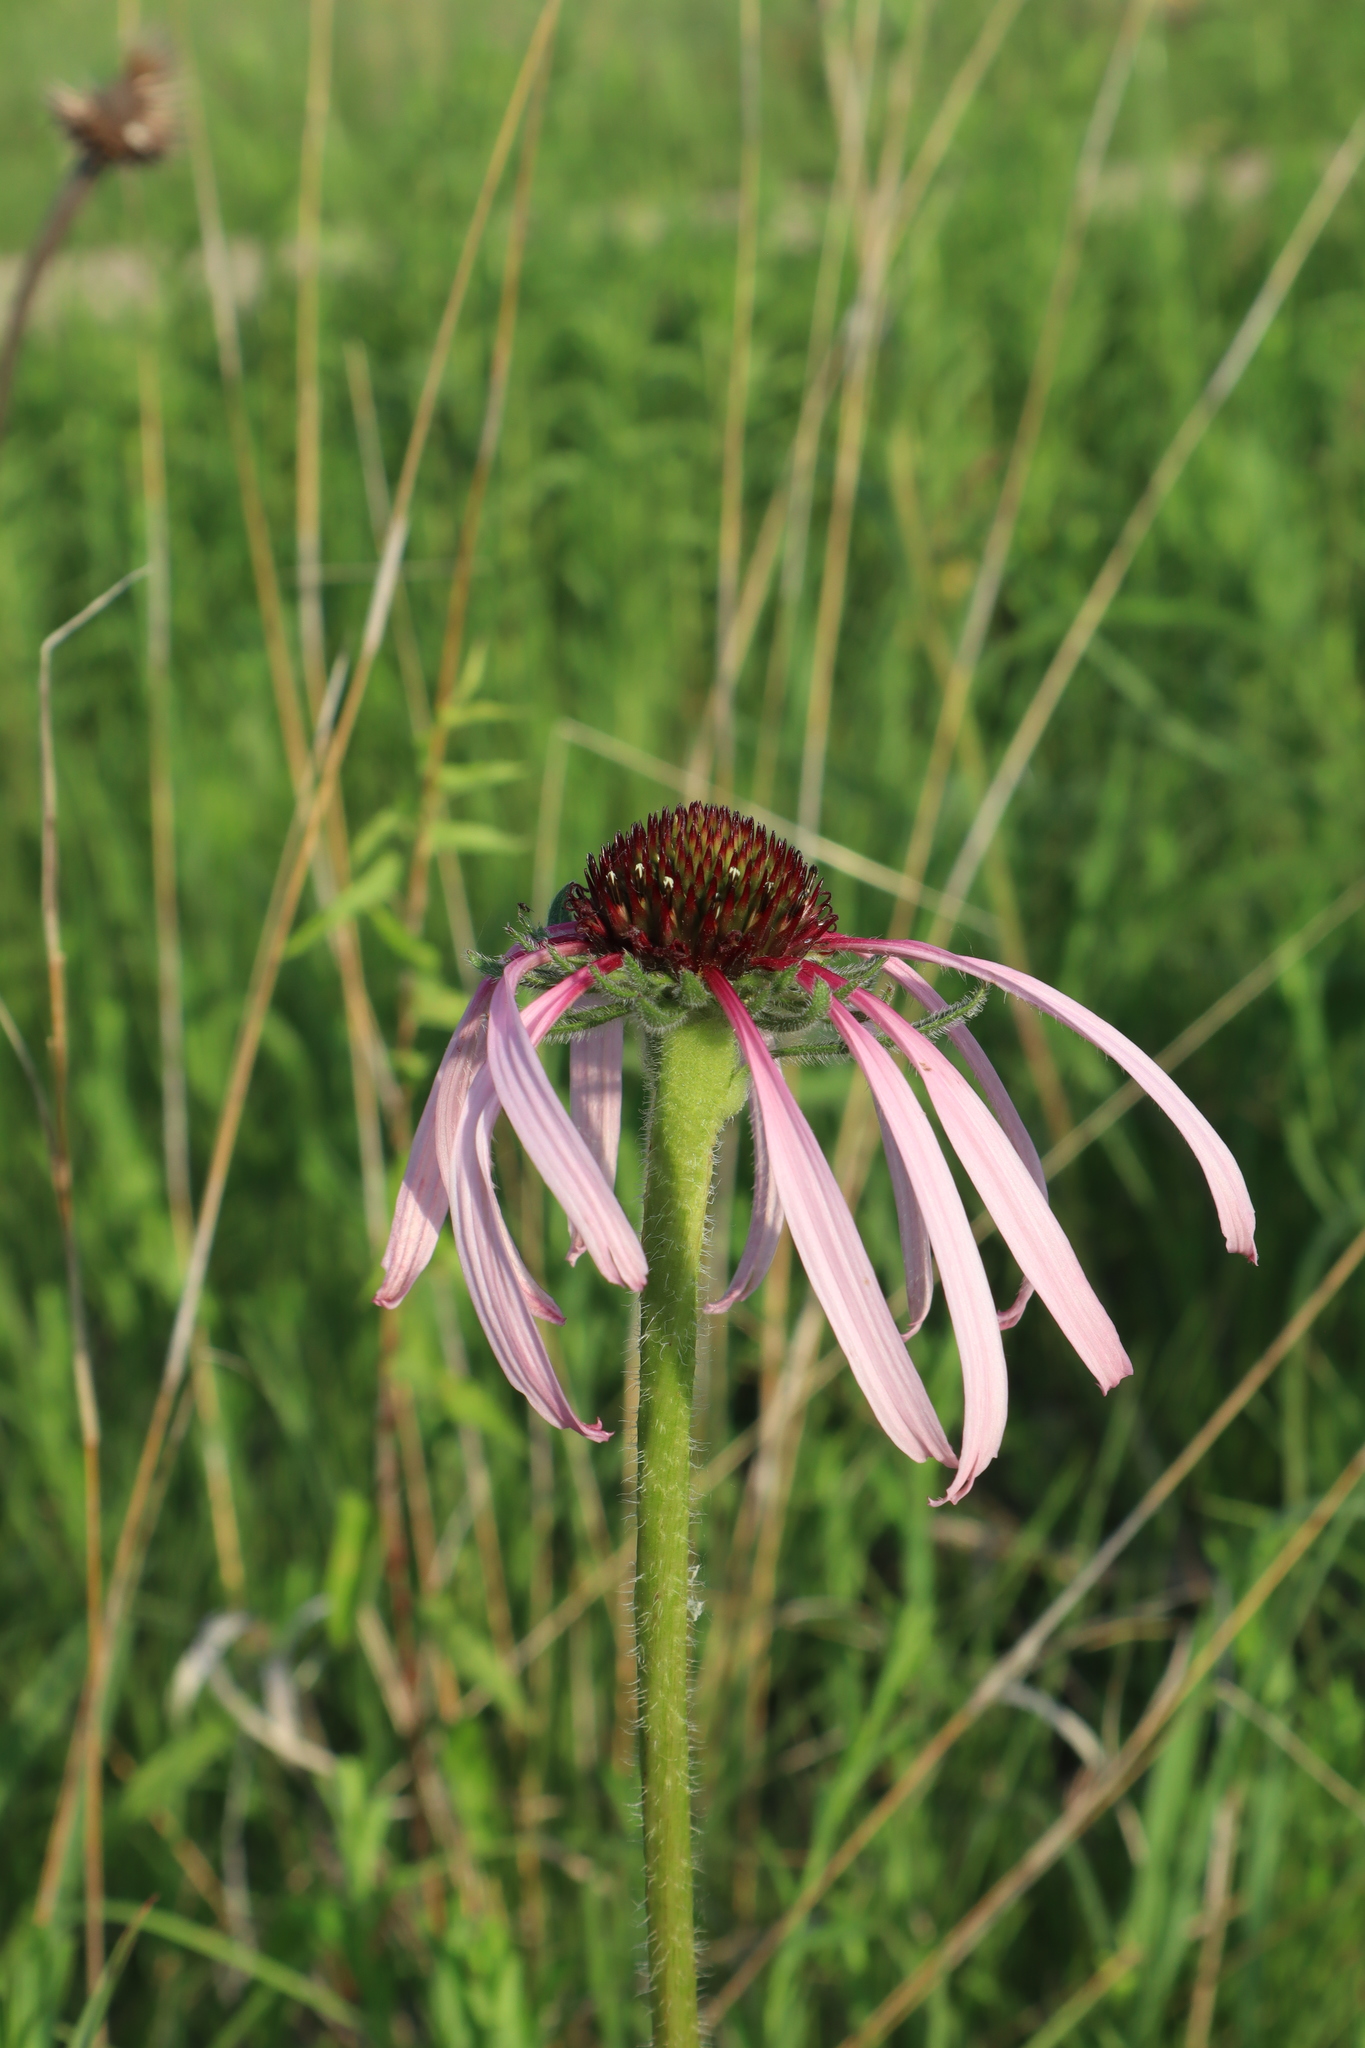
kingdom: Plantae
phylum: Tracheophyta
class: Magnoliopsida
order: Asterales
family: Asteraceae
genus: Echinacea
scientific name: Echinacea pallida
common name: Pale echinacea
